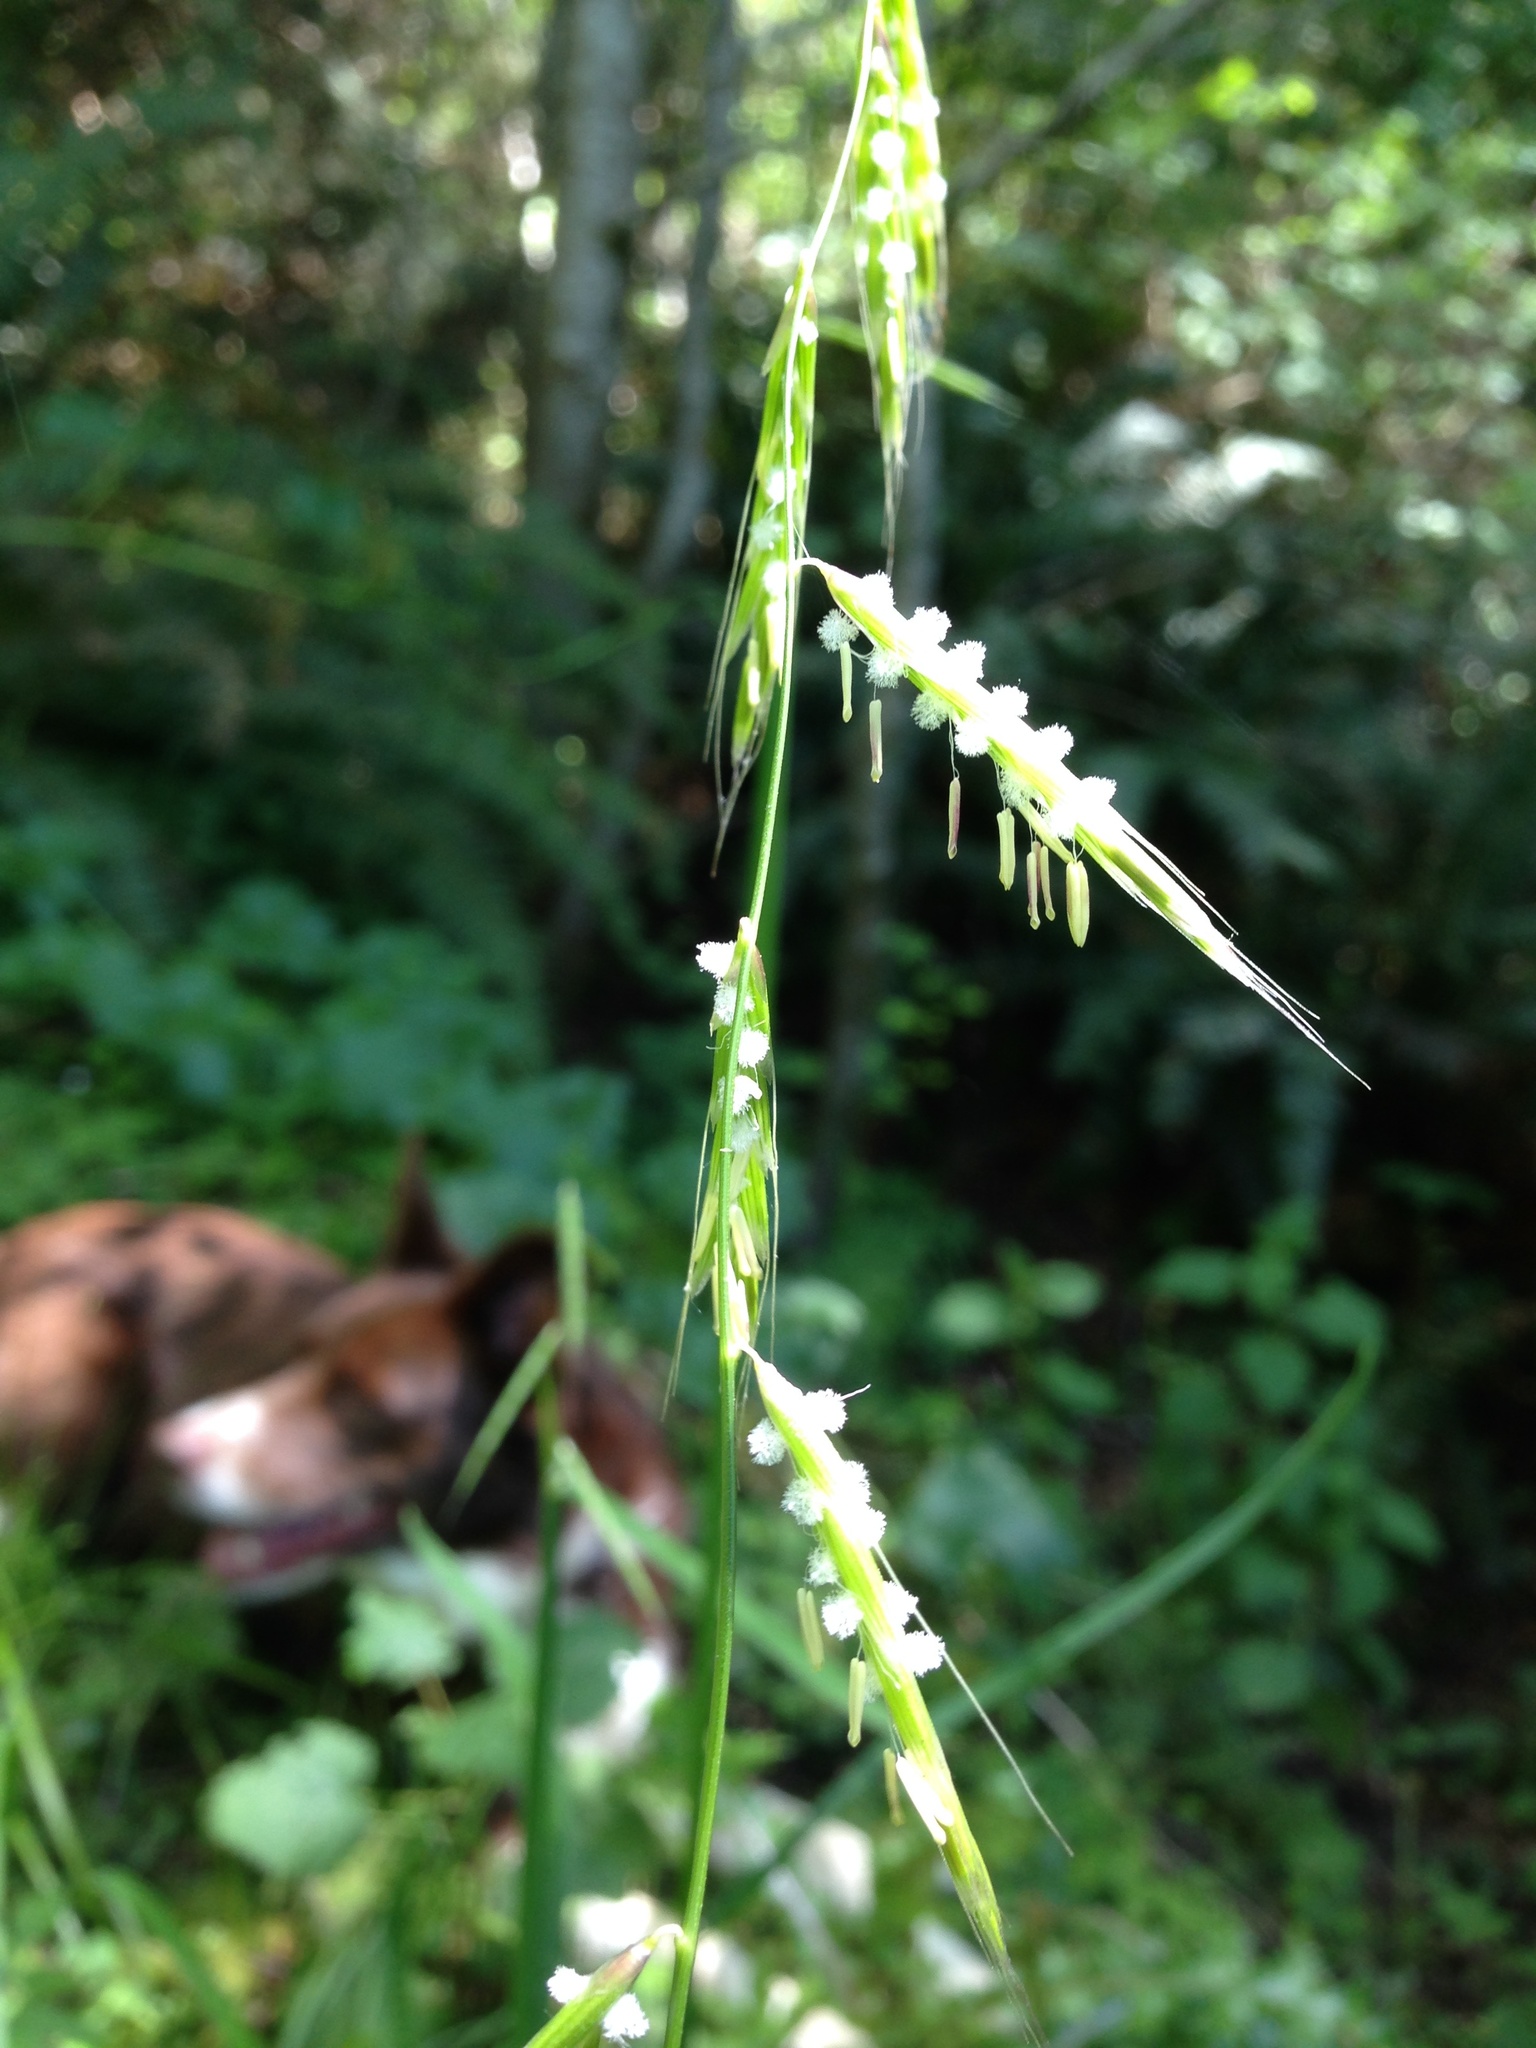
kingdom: Plantae
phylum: Tracheophyta
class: Liliopsida
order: Poales
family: Poaceae
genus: Pleuropogon
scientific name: Pleuropogon refractus
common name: Nodding false semaphoregrass
